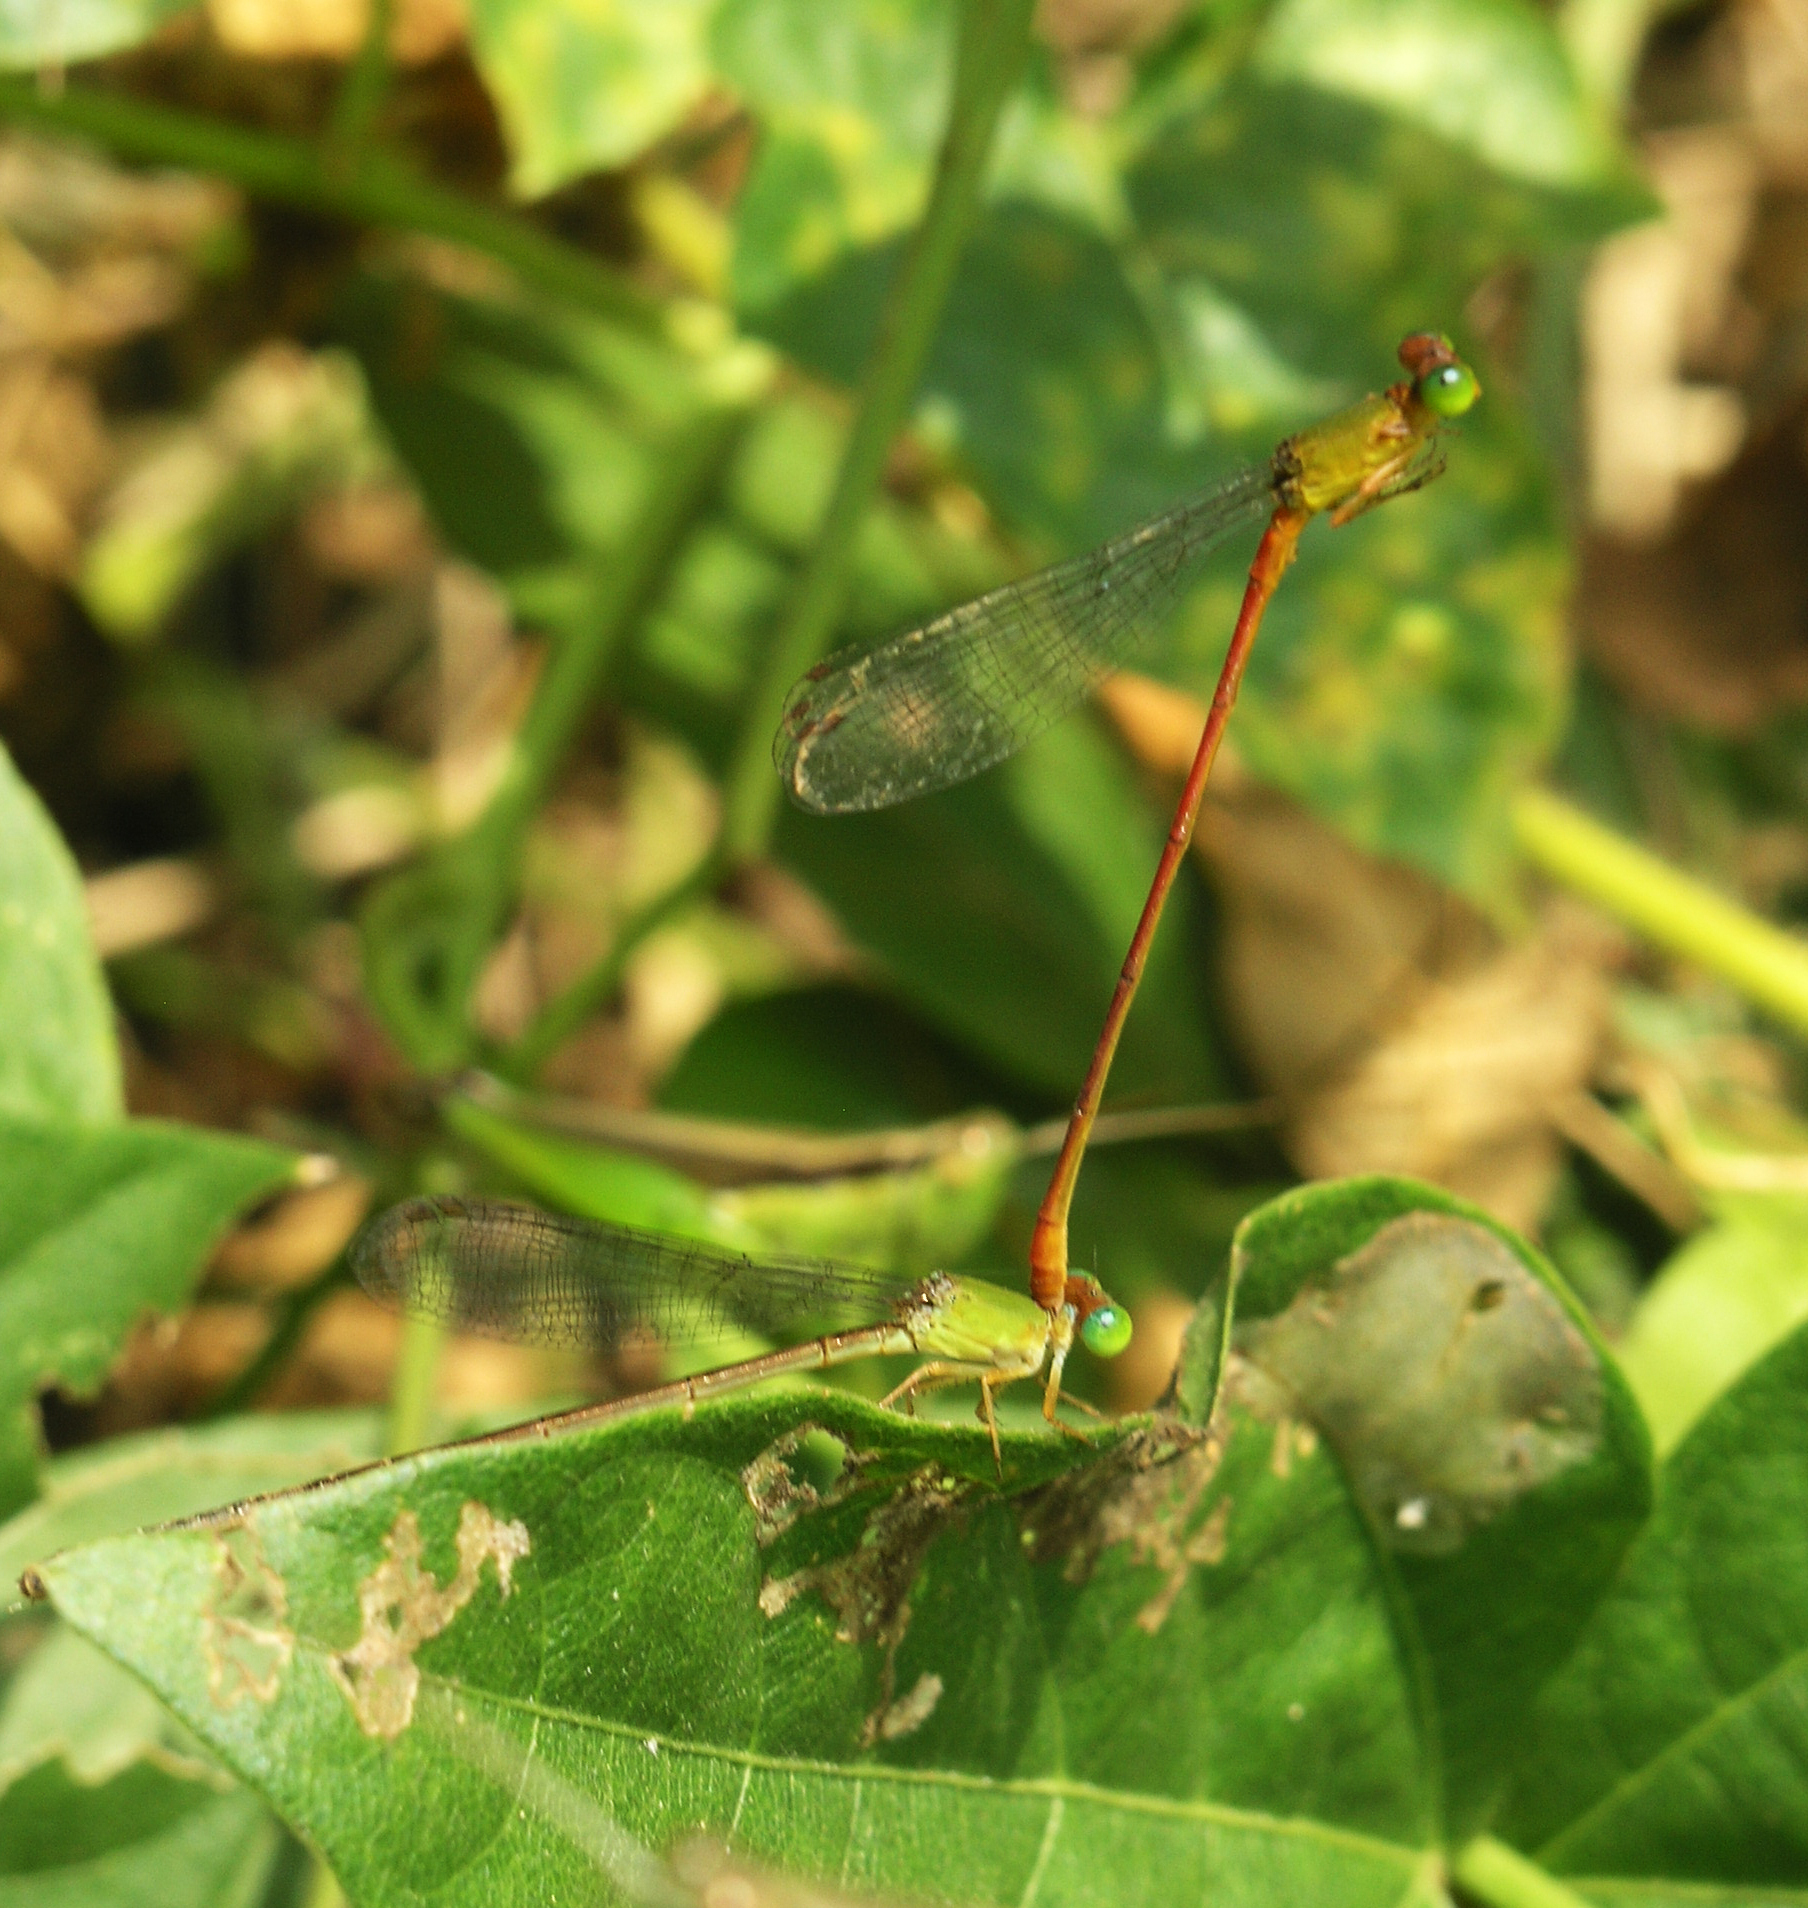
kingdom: Animalia
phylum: Arthropoda
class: Insecta
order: Odonata
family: Coenagrionidae
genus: Ceriagrion
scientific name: Ceriagrion auranticum
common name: Orange-tailed sprite
